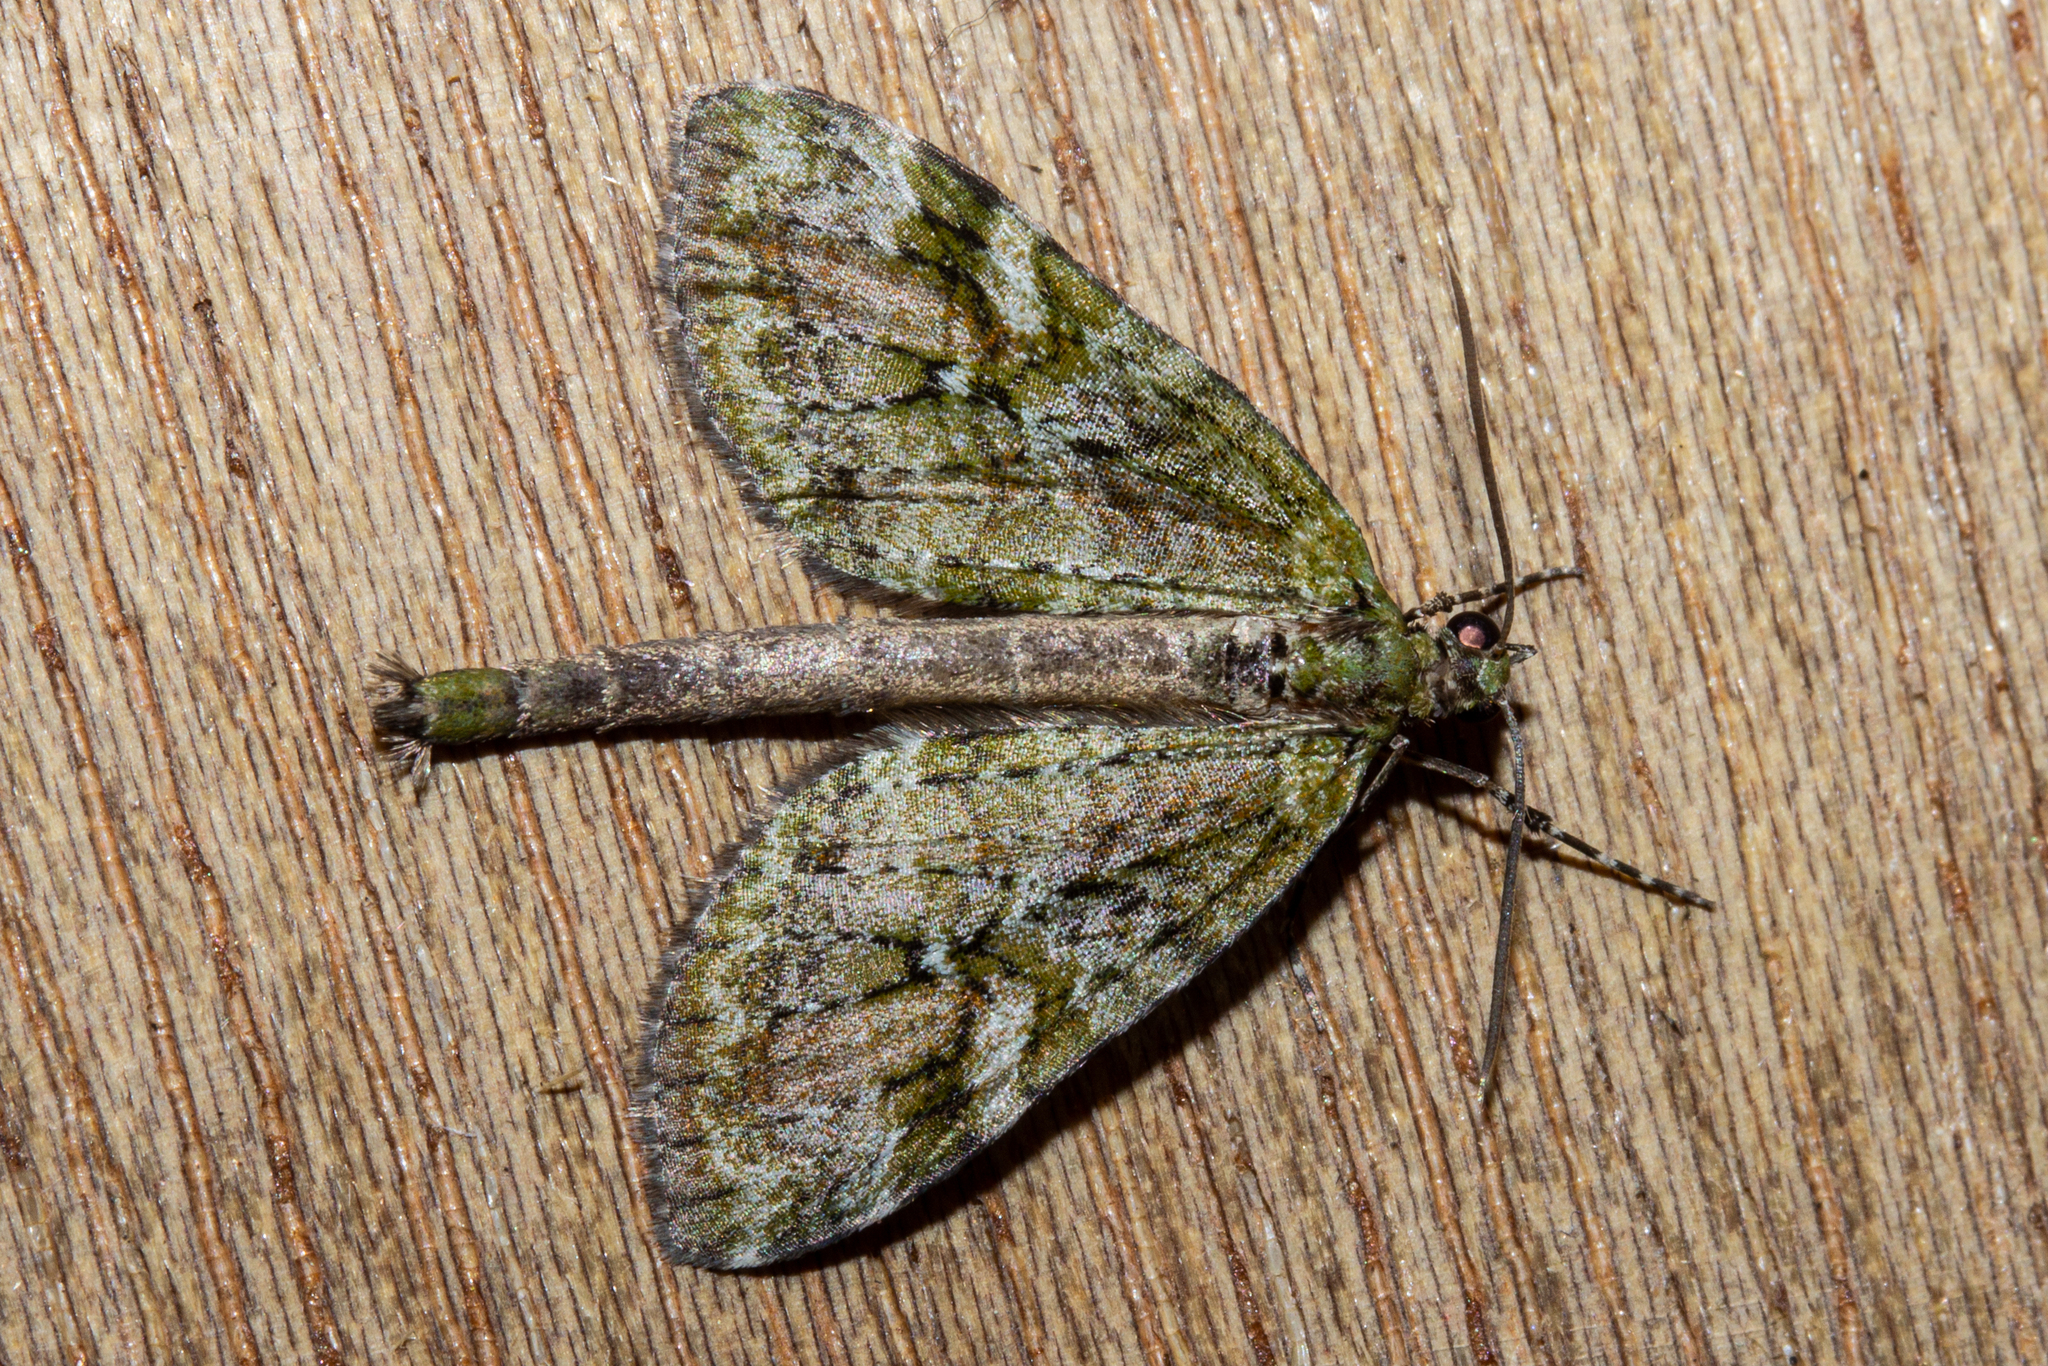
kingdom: Animalia
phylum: Arthropoda
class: Insecta
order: Lepidoptera
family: Geometridae
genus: Tatosoma
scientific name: Tatosoma topea
